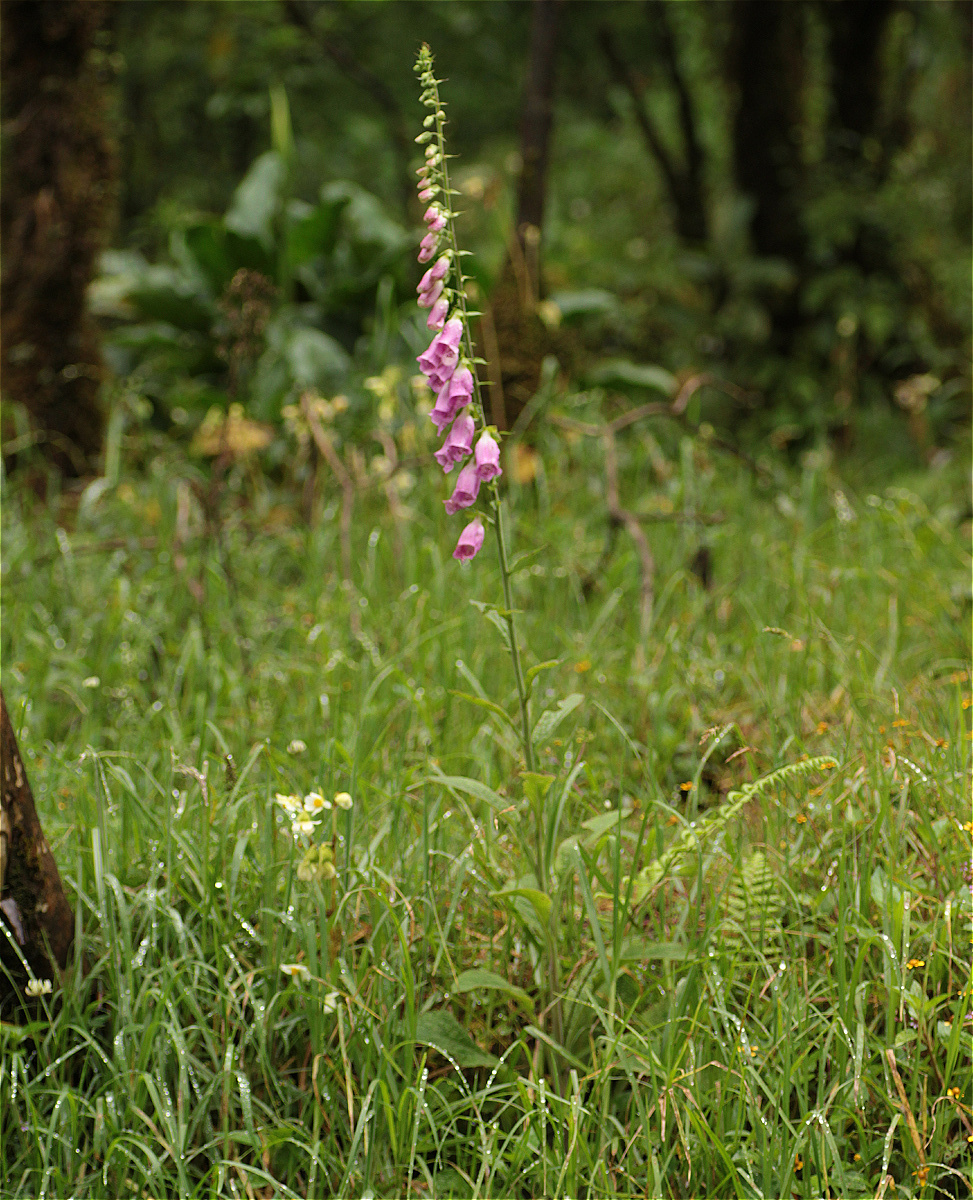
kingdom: Plantae
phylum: Tracheophyta
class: Magnoliopsida
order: Lamiales
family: Plantaginaceae
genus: Digitalis
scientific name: Digitalis purpurea
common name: Foxglove
